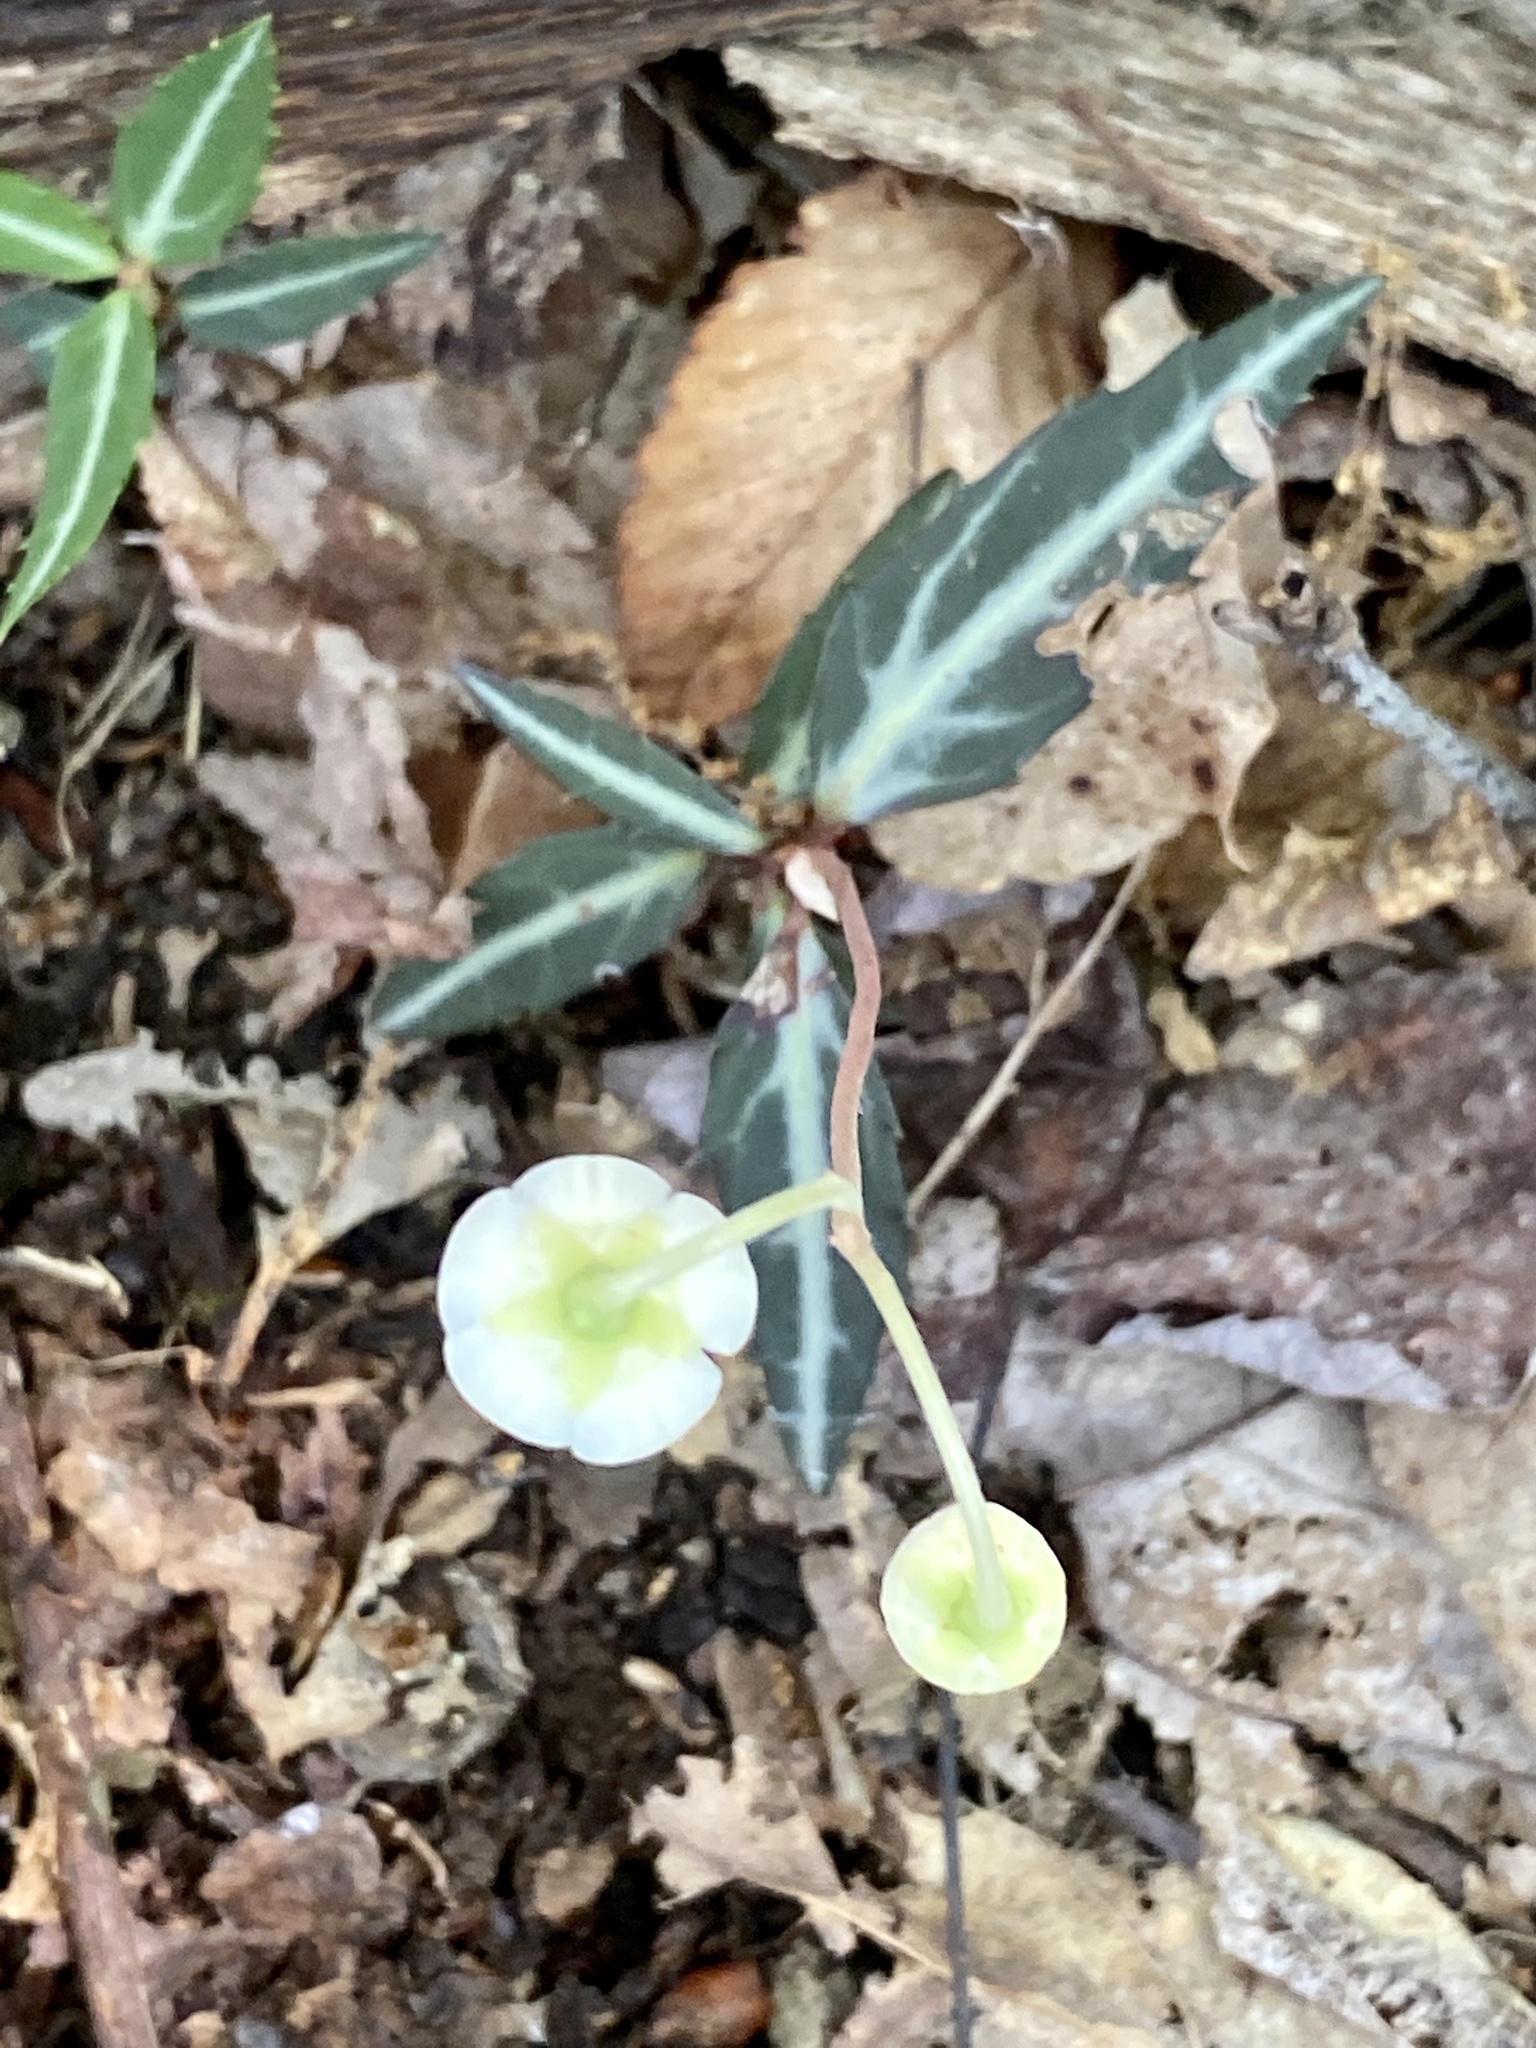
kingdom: Plantae
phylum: Tracheophyta
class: Magnoliopsida
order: Ericales
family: Ericaceae
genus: Chimaphila
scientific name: Chimaphila maculata
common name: Spotted pipsissewa
